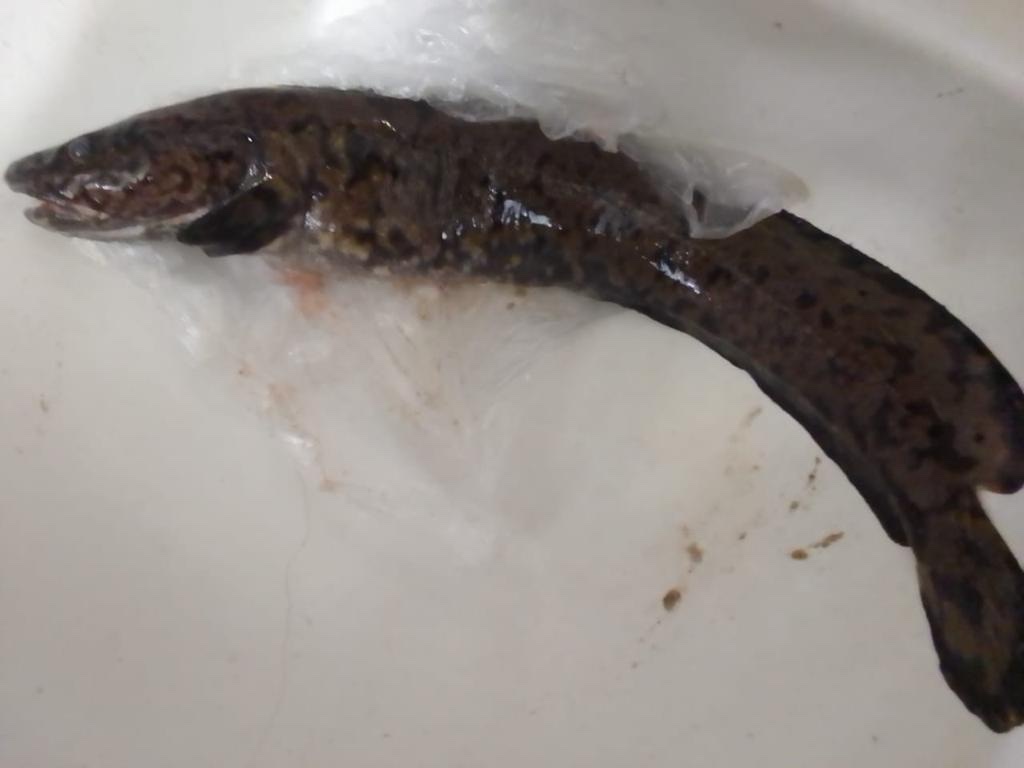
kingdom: Animalia
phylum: Chordata
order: Gadiformes
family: Lotidae
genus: Lota
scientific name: Lota lota
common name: Burbot
